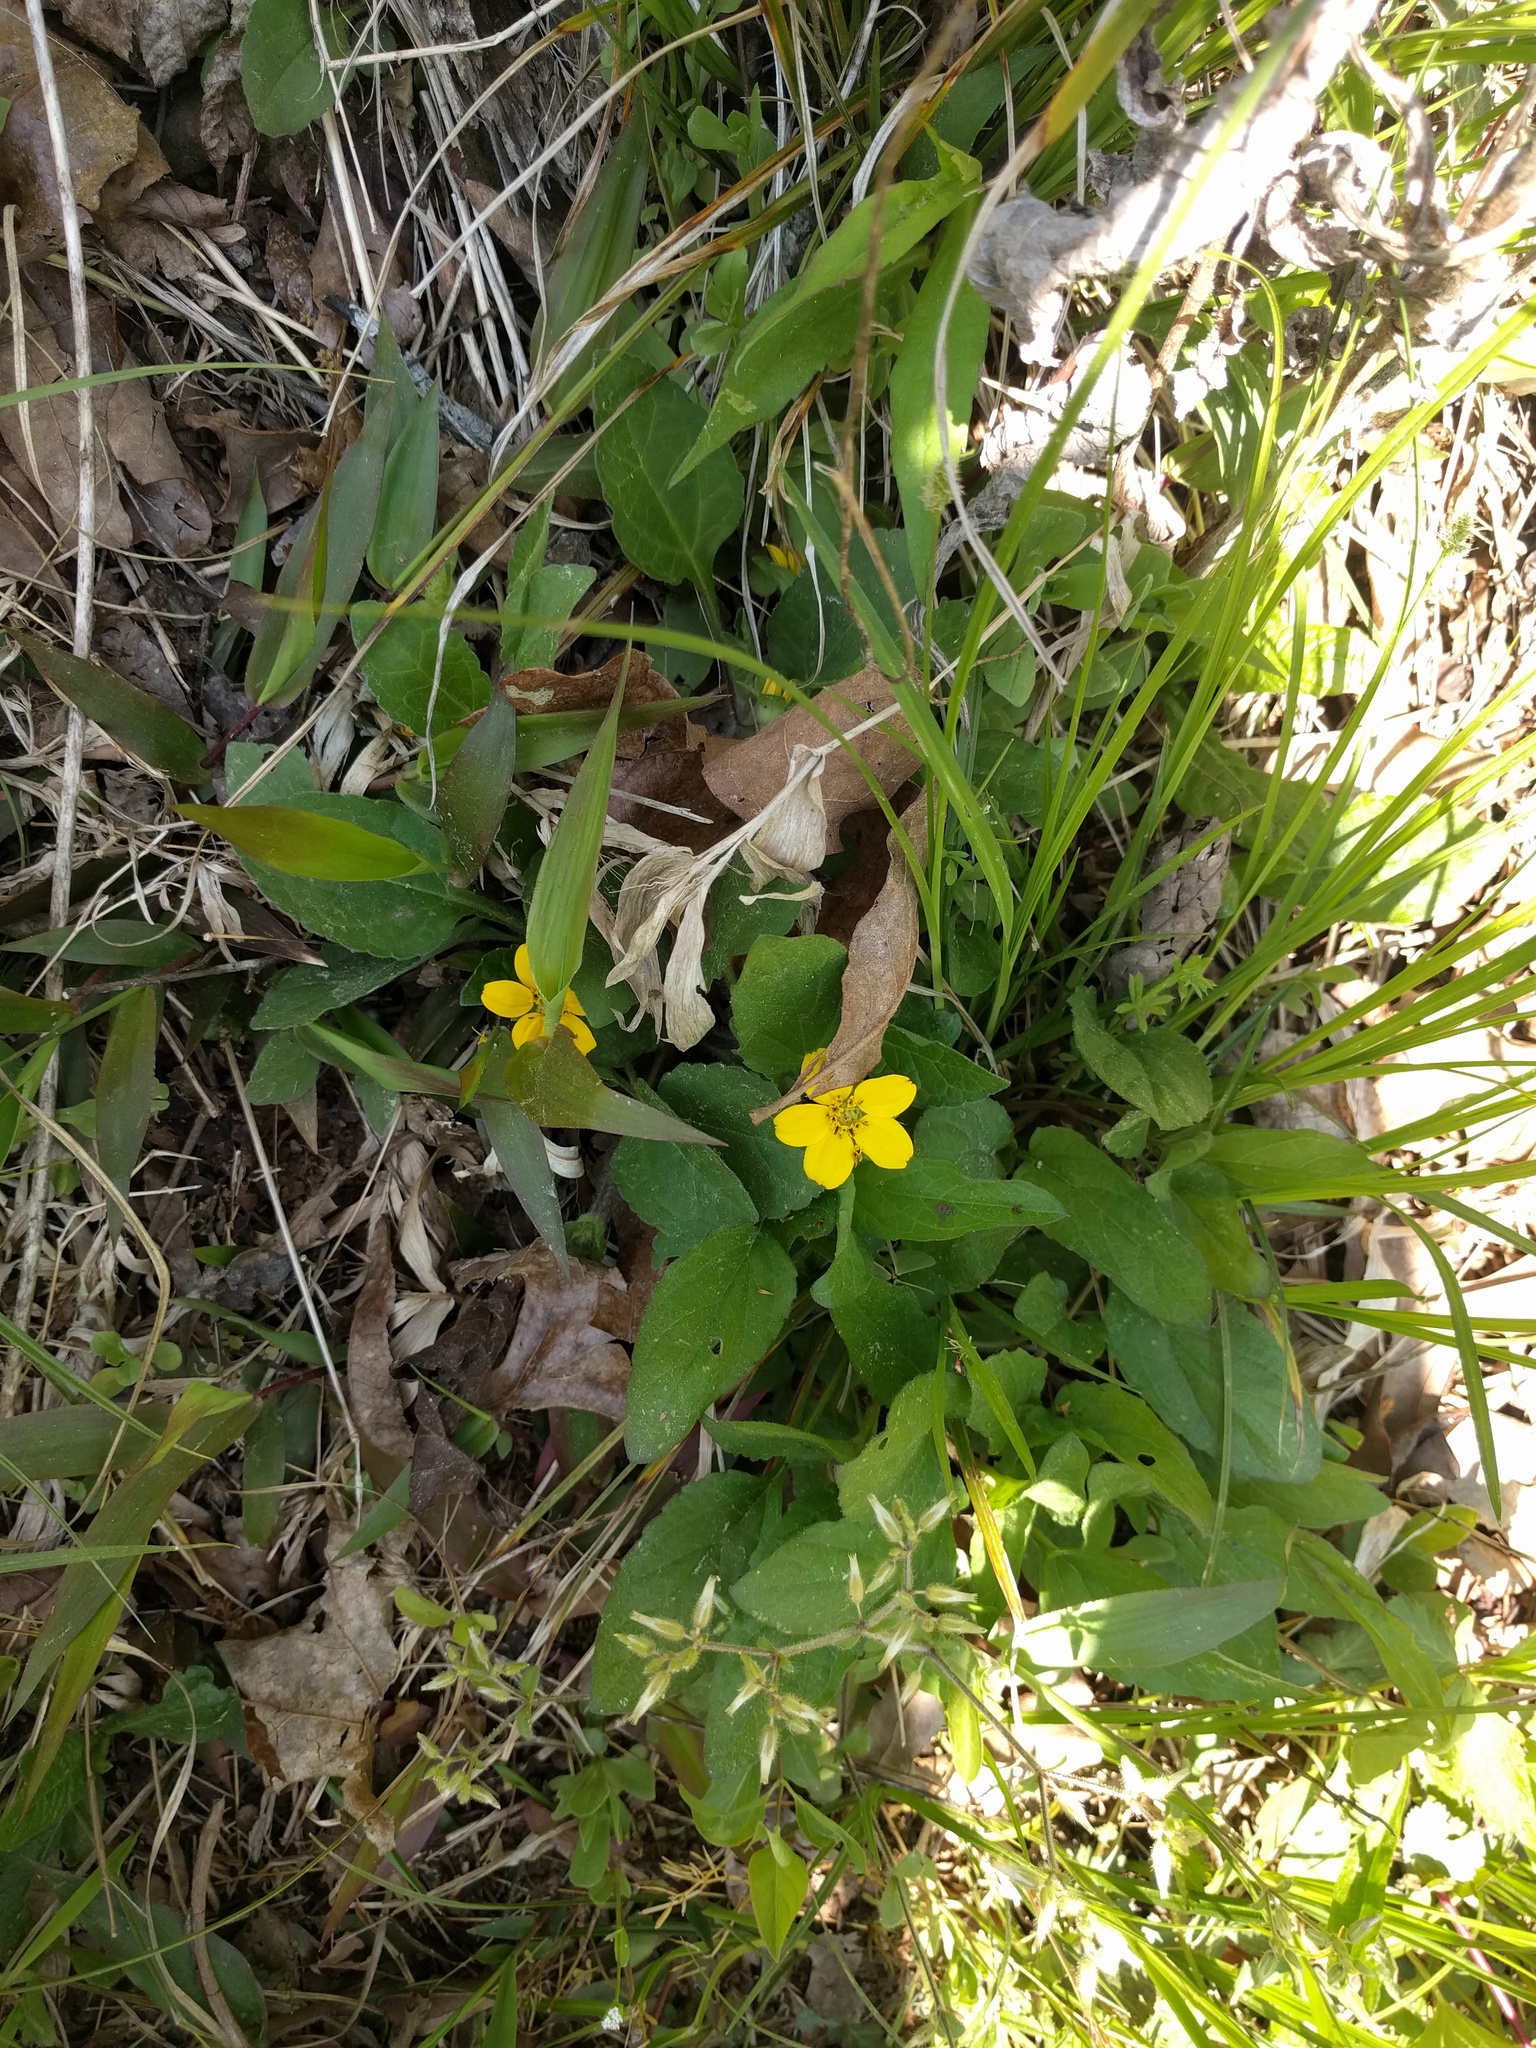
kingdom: Plantae
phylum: Tracheophyta
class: Magnoliopsida
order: Asterales
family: Asteraceae
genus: Chrysogonum
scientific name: Chrysogonum virginianum
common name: Golden-knee
